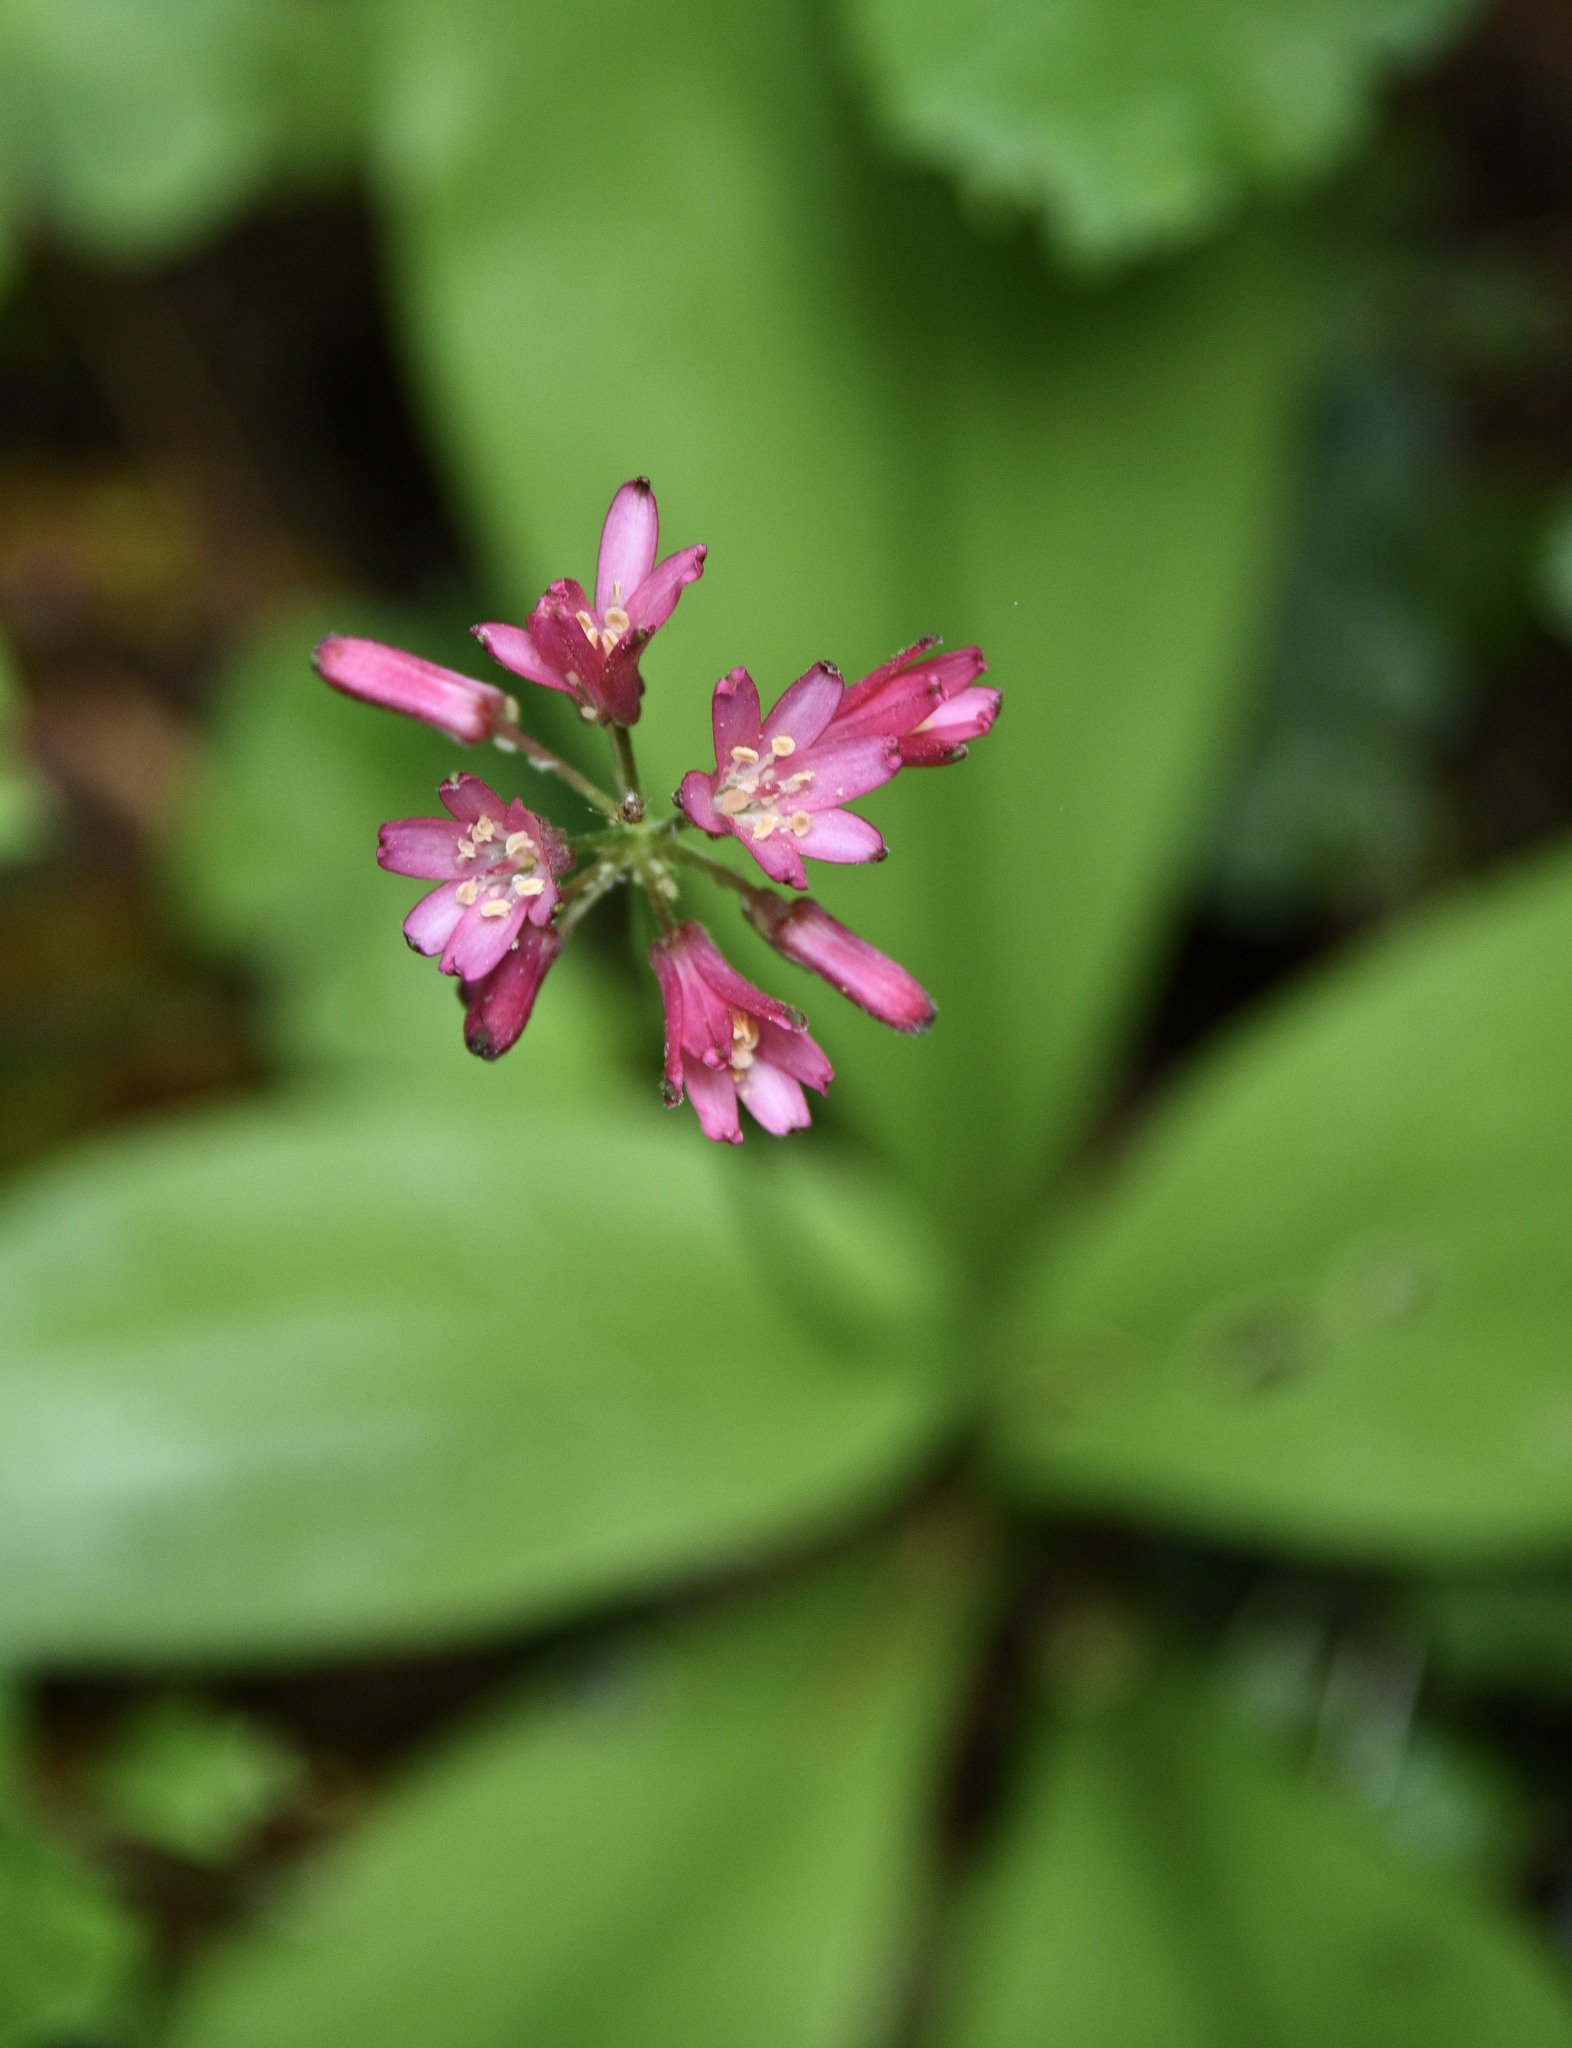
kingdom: Plantae
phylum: Tracheophyta
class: Liliopsida
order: Liliales
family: Liliaceae
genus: Clintonia
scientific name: Clintonia andrewsiana
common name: Red clintonia
